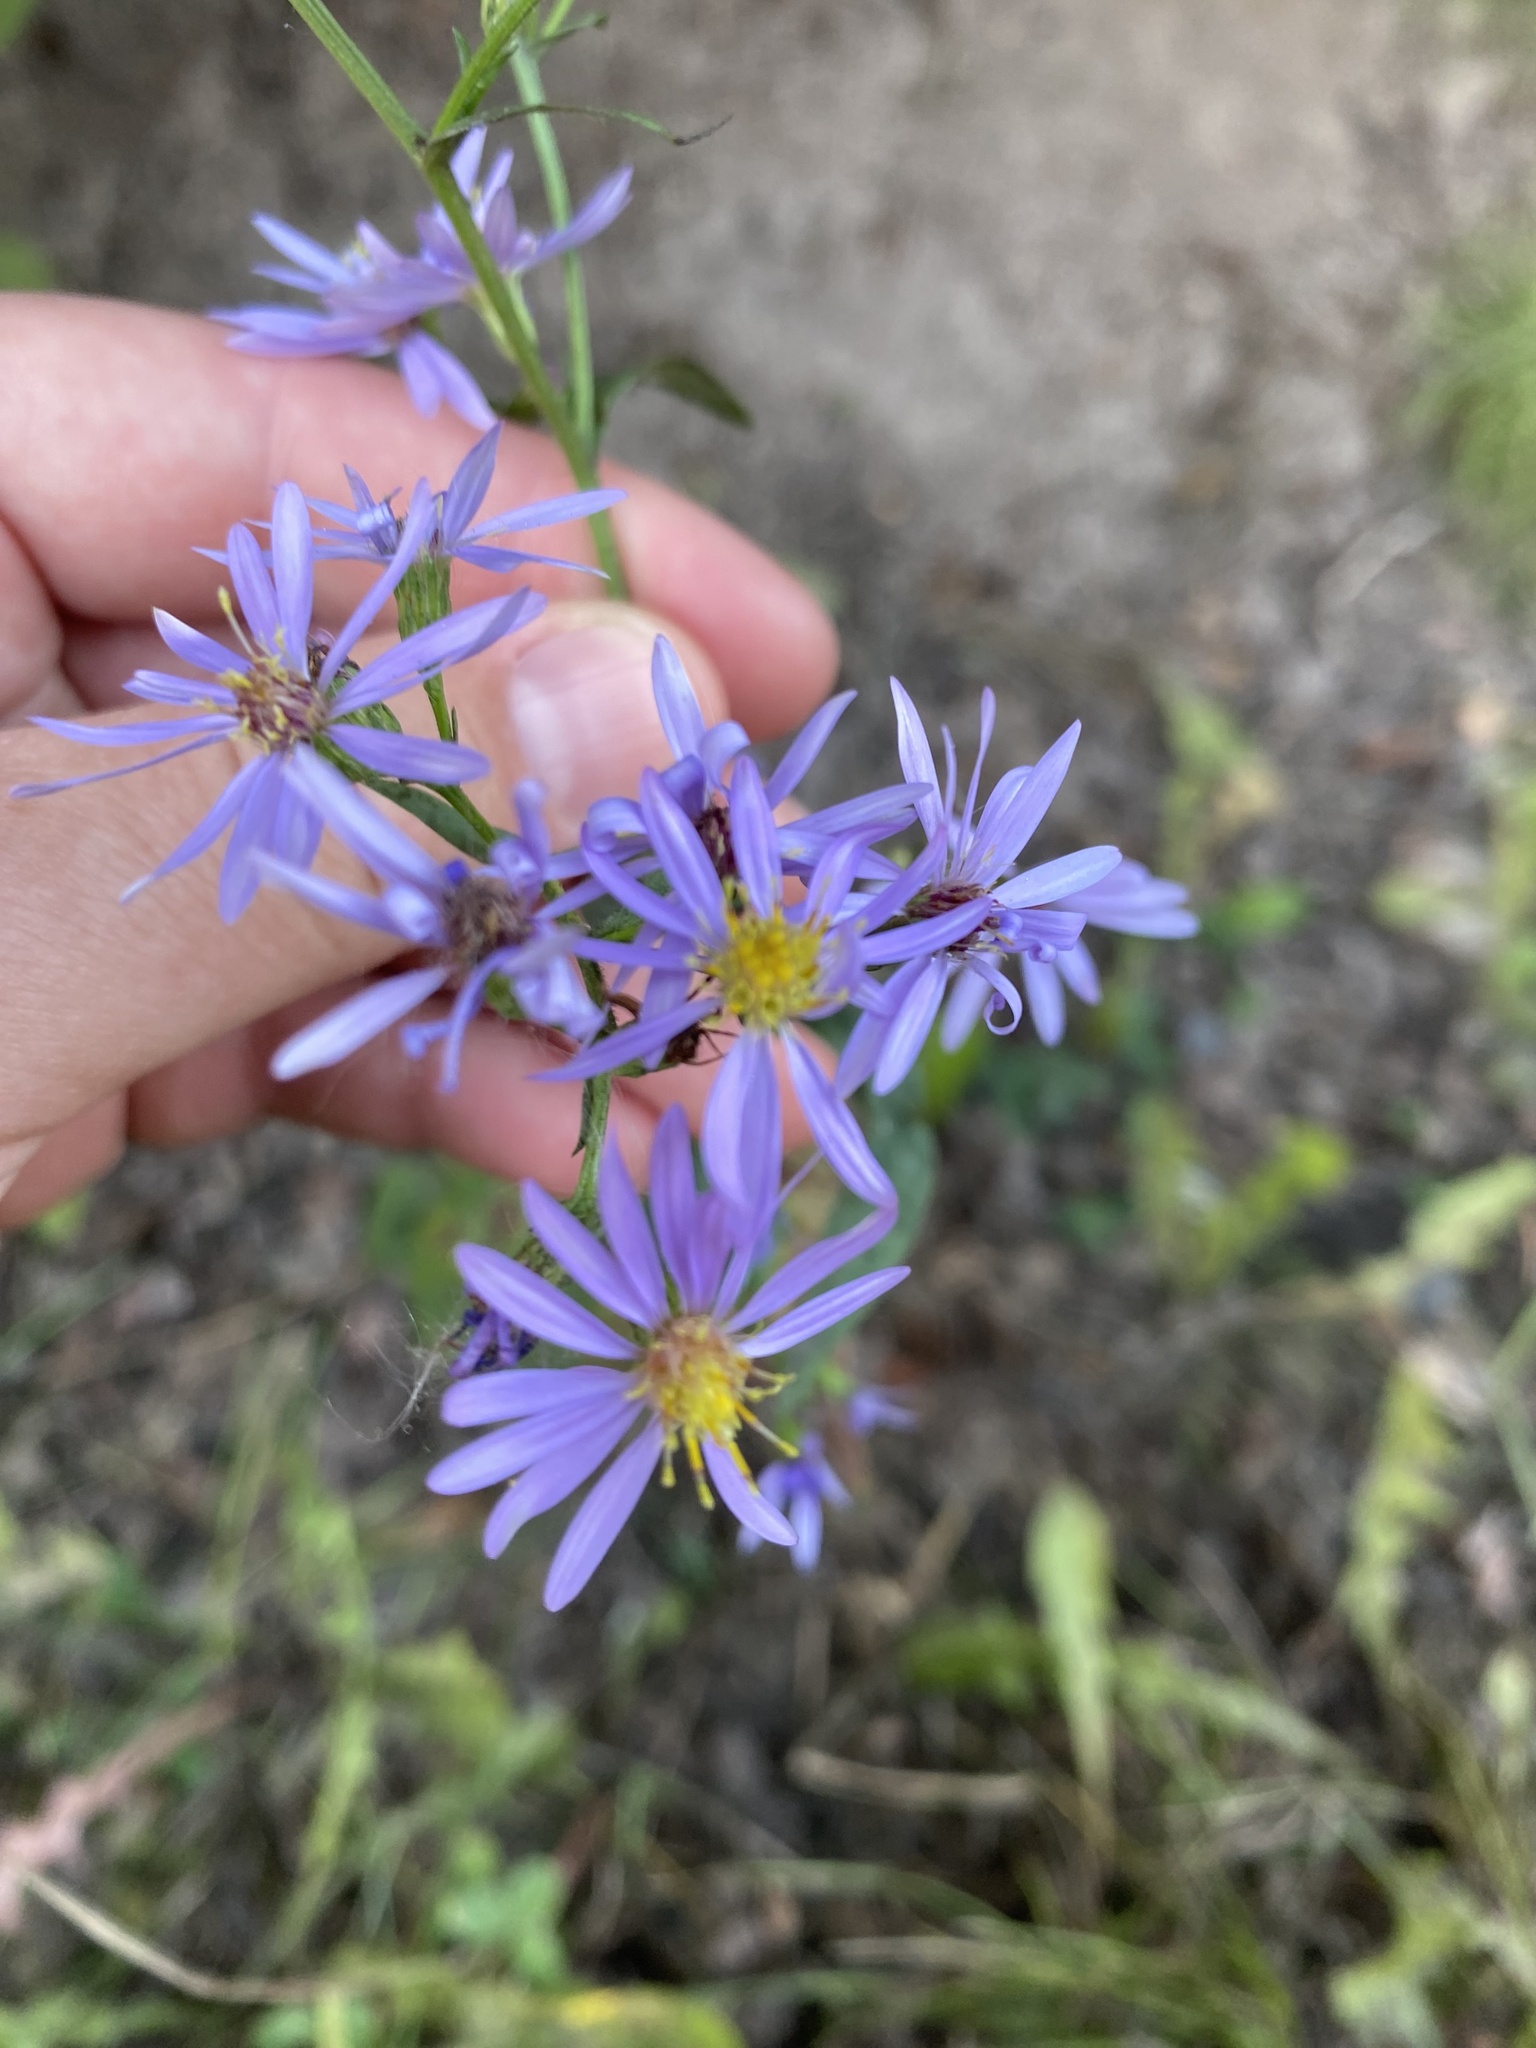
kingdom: Plantae
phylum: Tracheophyta
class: Magnoliopsida
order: Asterales
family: Asteraceae
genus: Symphyotrichum
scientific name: Symphyotrichum ciliolatum
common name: Fringed blue aster
